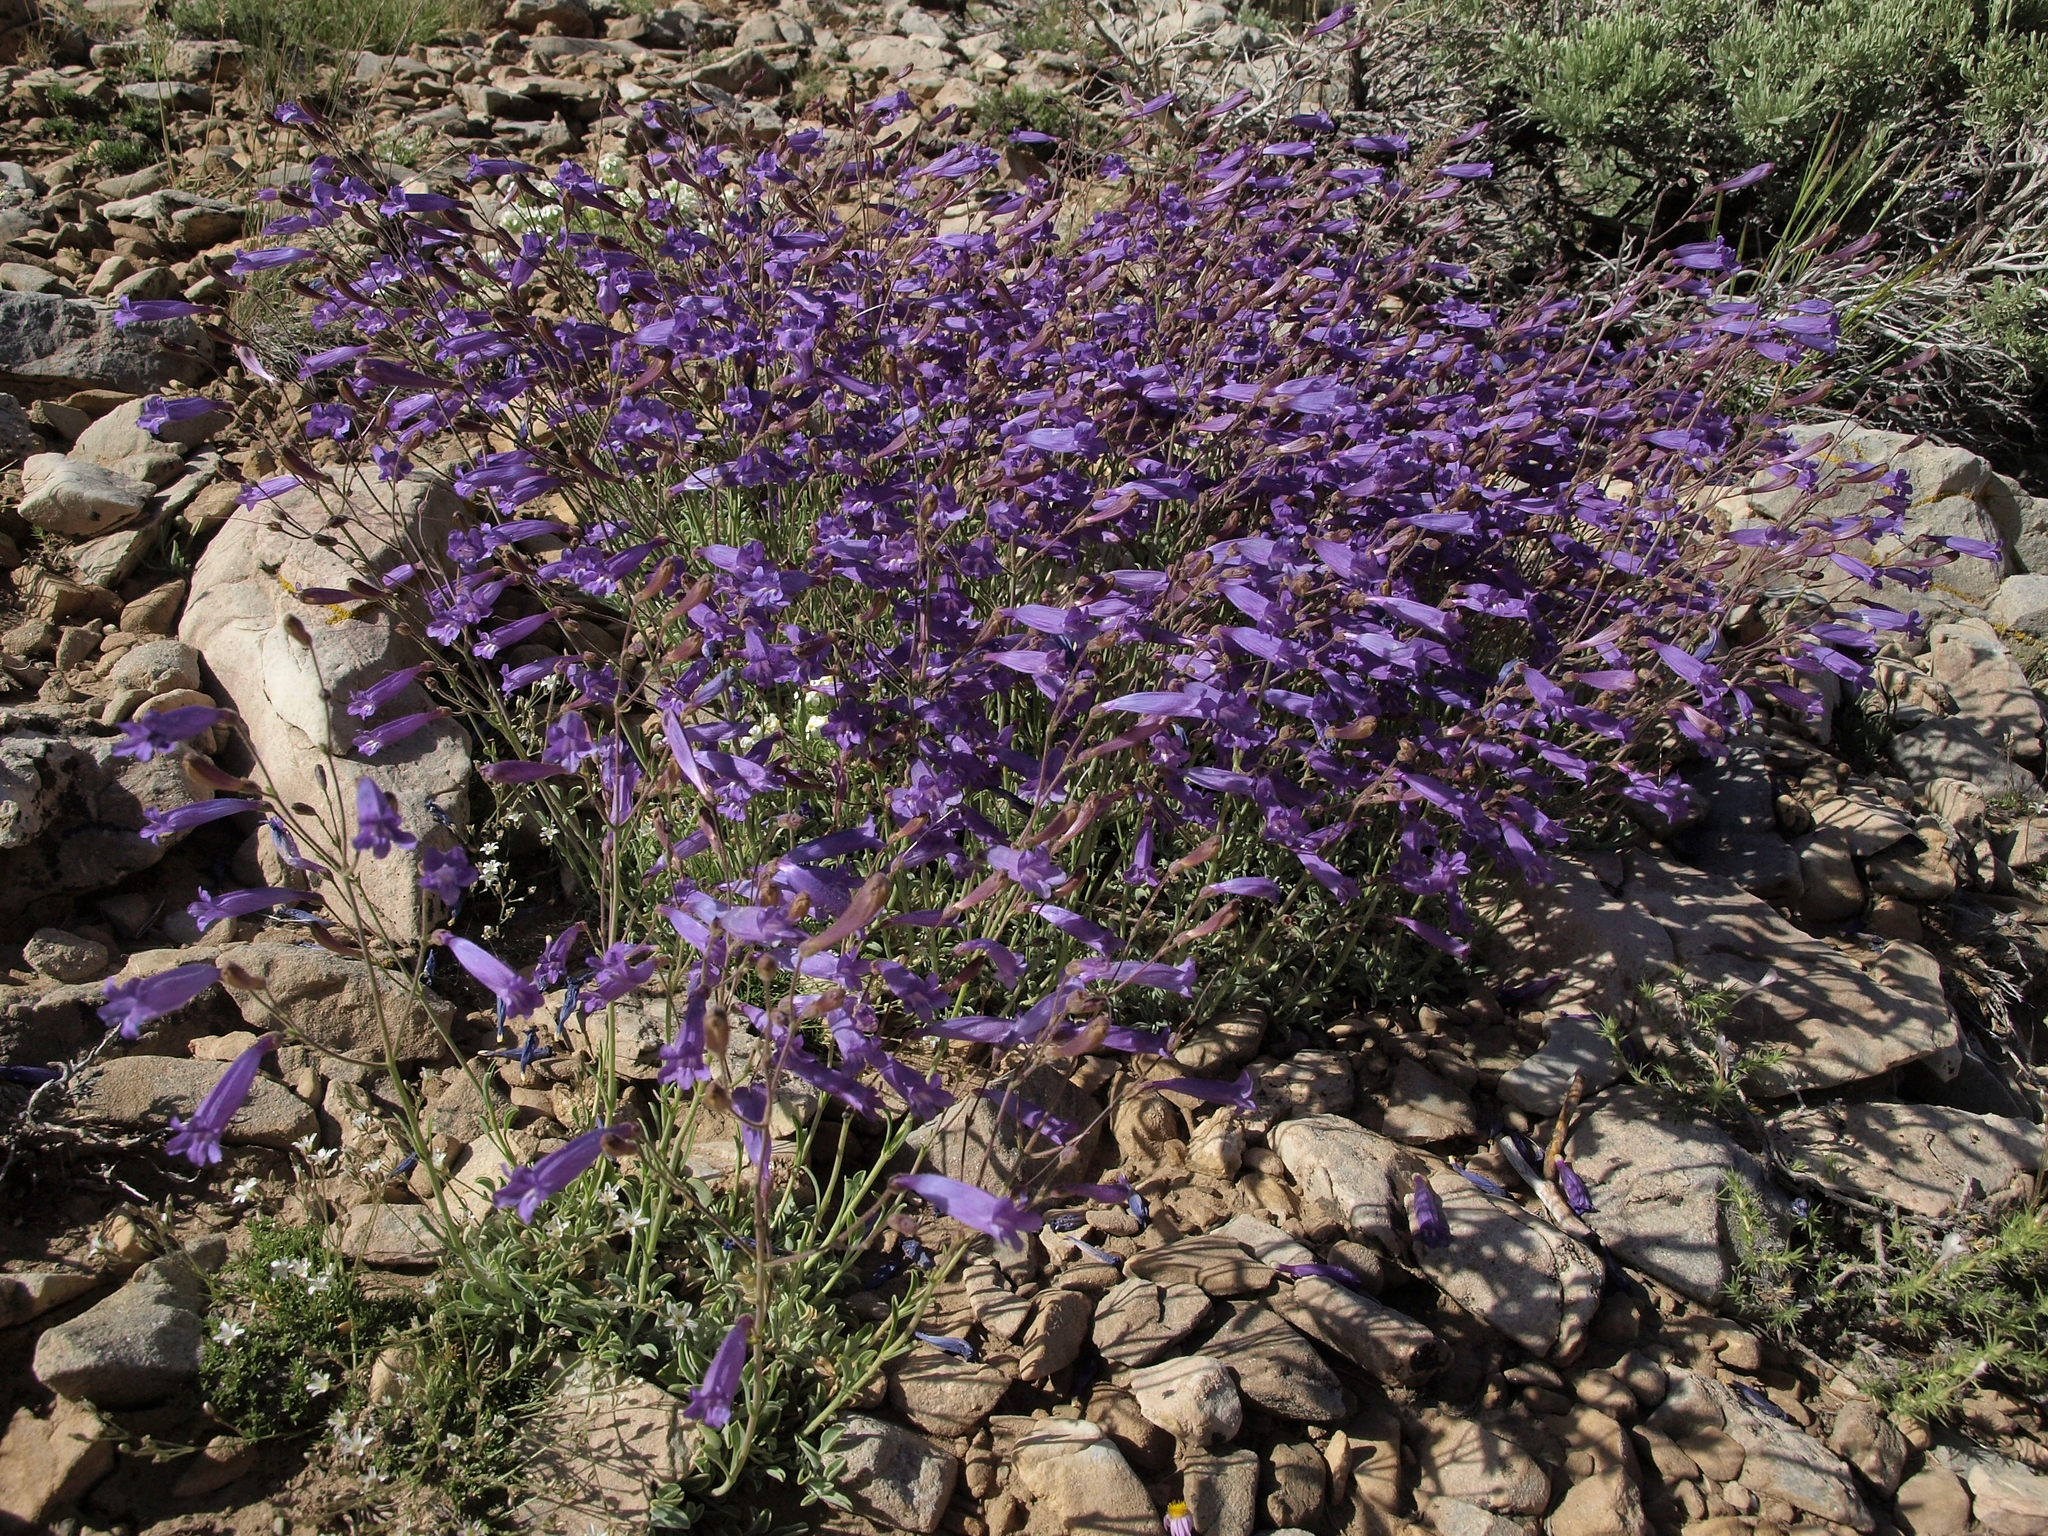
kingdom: Plantae
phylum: Tracheophyta
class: Magnoliopsida
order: Lamiales
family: Plantaginaceae
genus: Penstemon
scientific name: Penstemon scapoides
